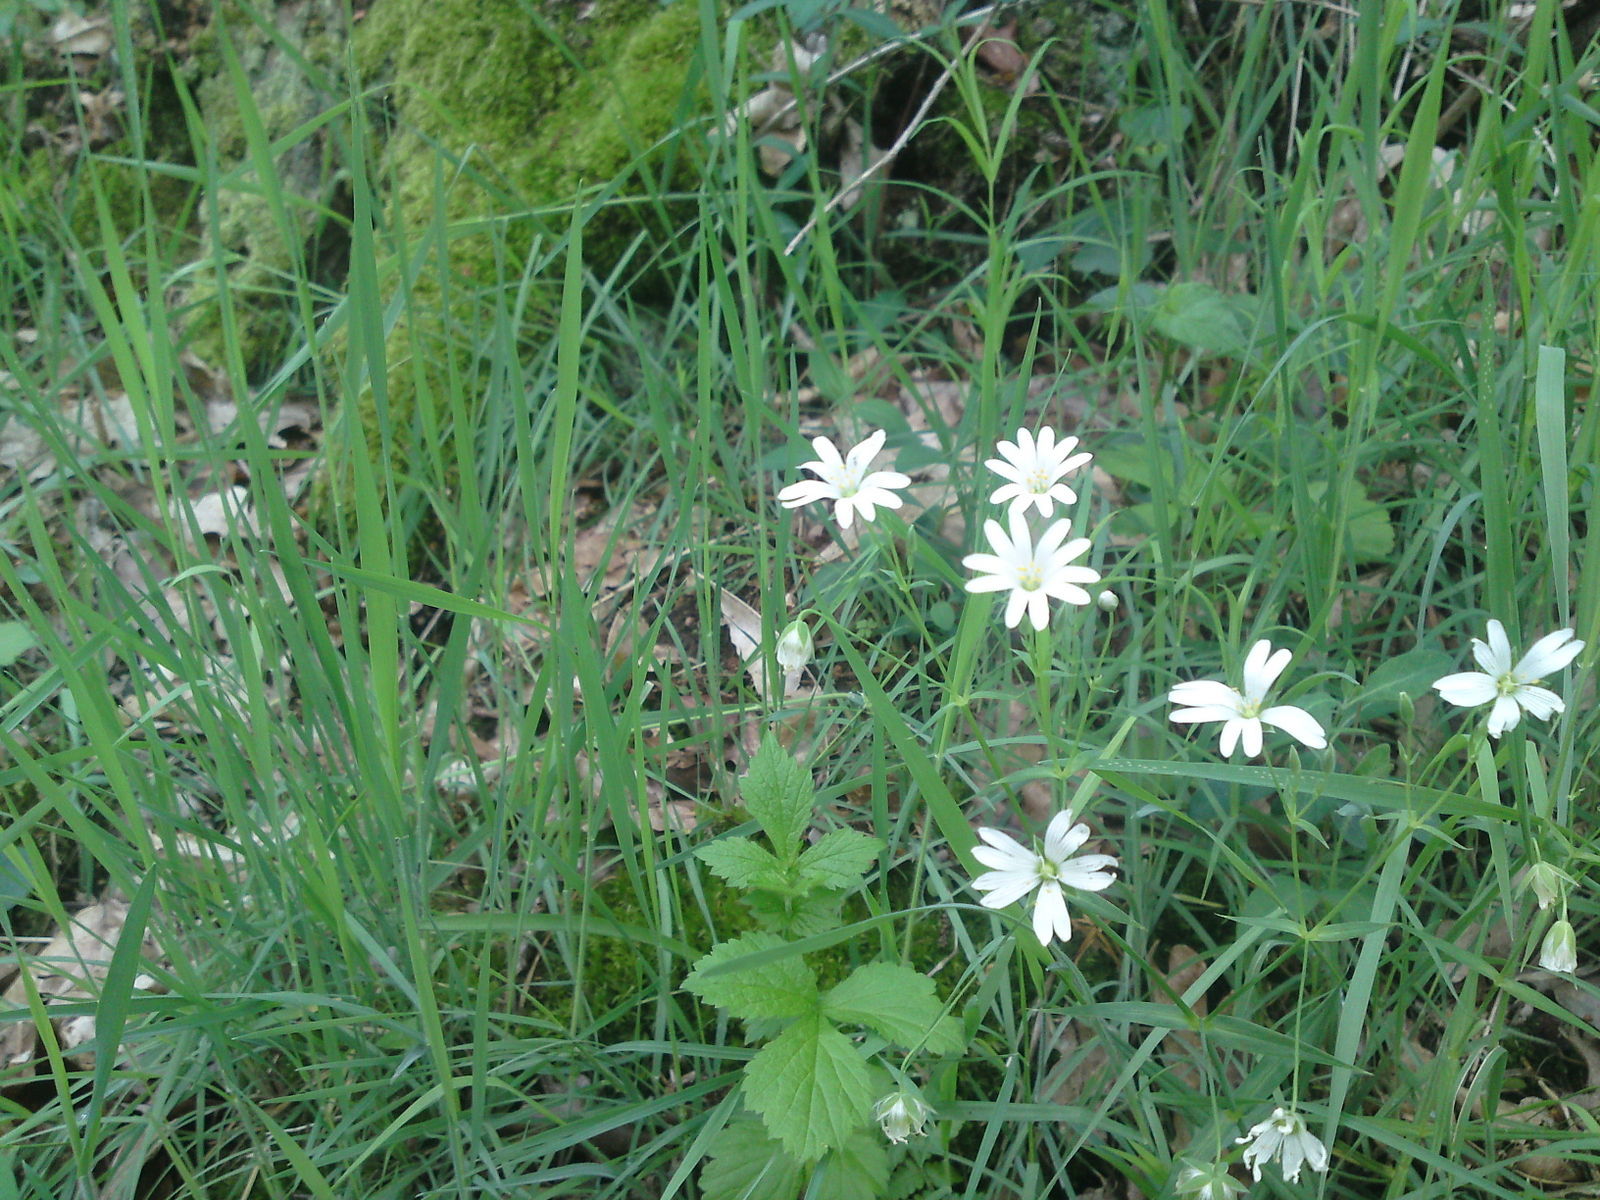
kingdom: Plantae
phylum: Tracheophyta
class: Magnoliopsida
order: Caryophyllales
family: Caryophyllaceae
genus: Rabelera
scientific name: Rabelera holostea
